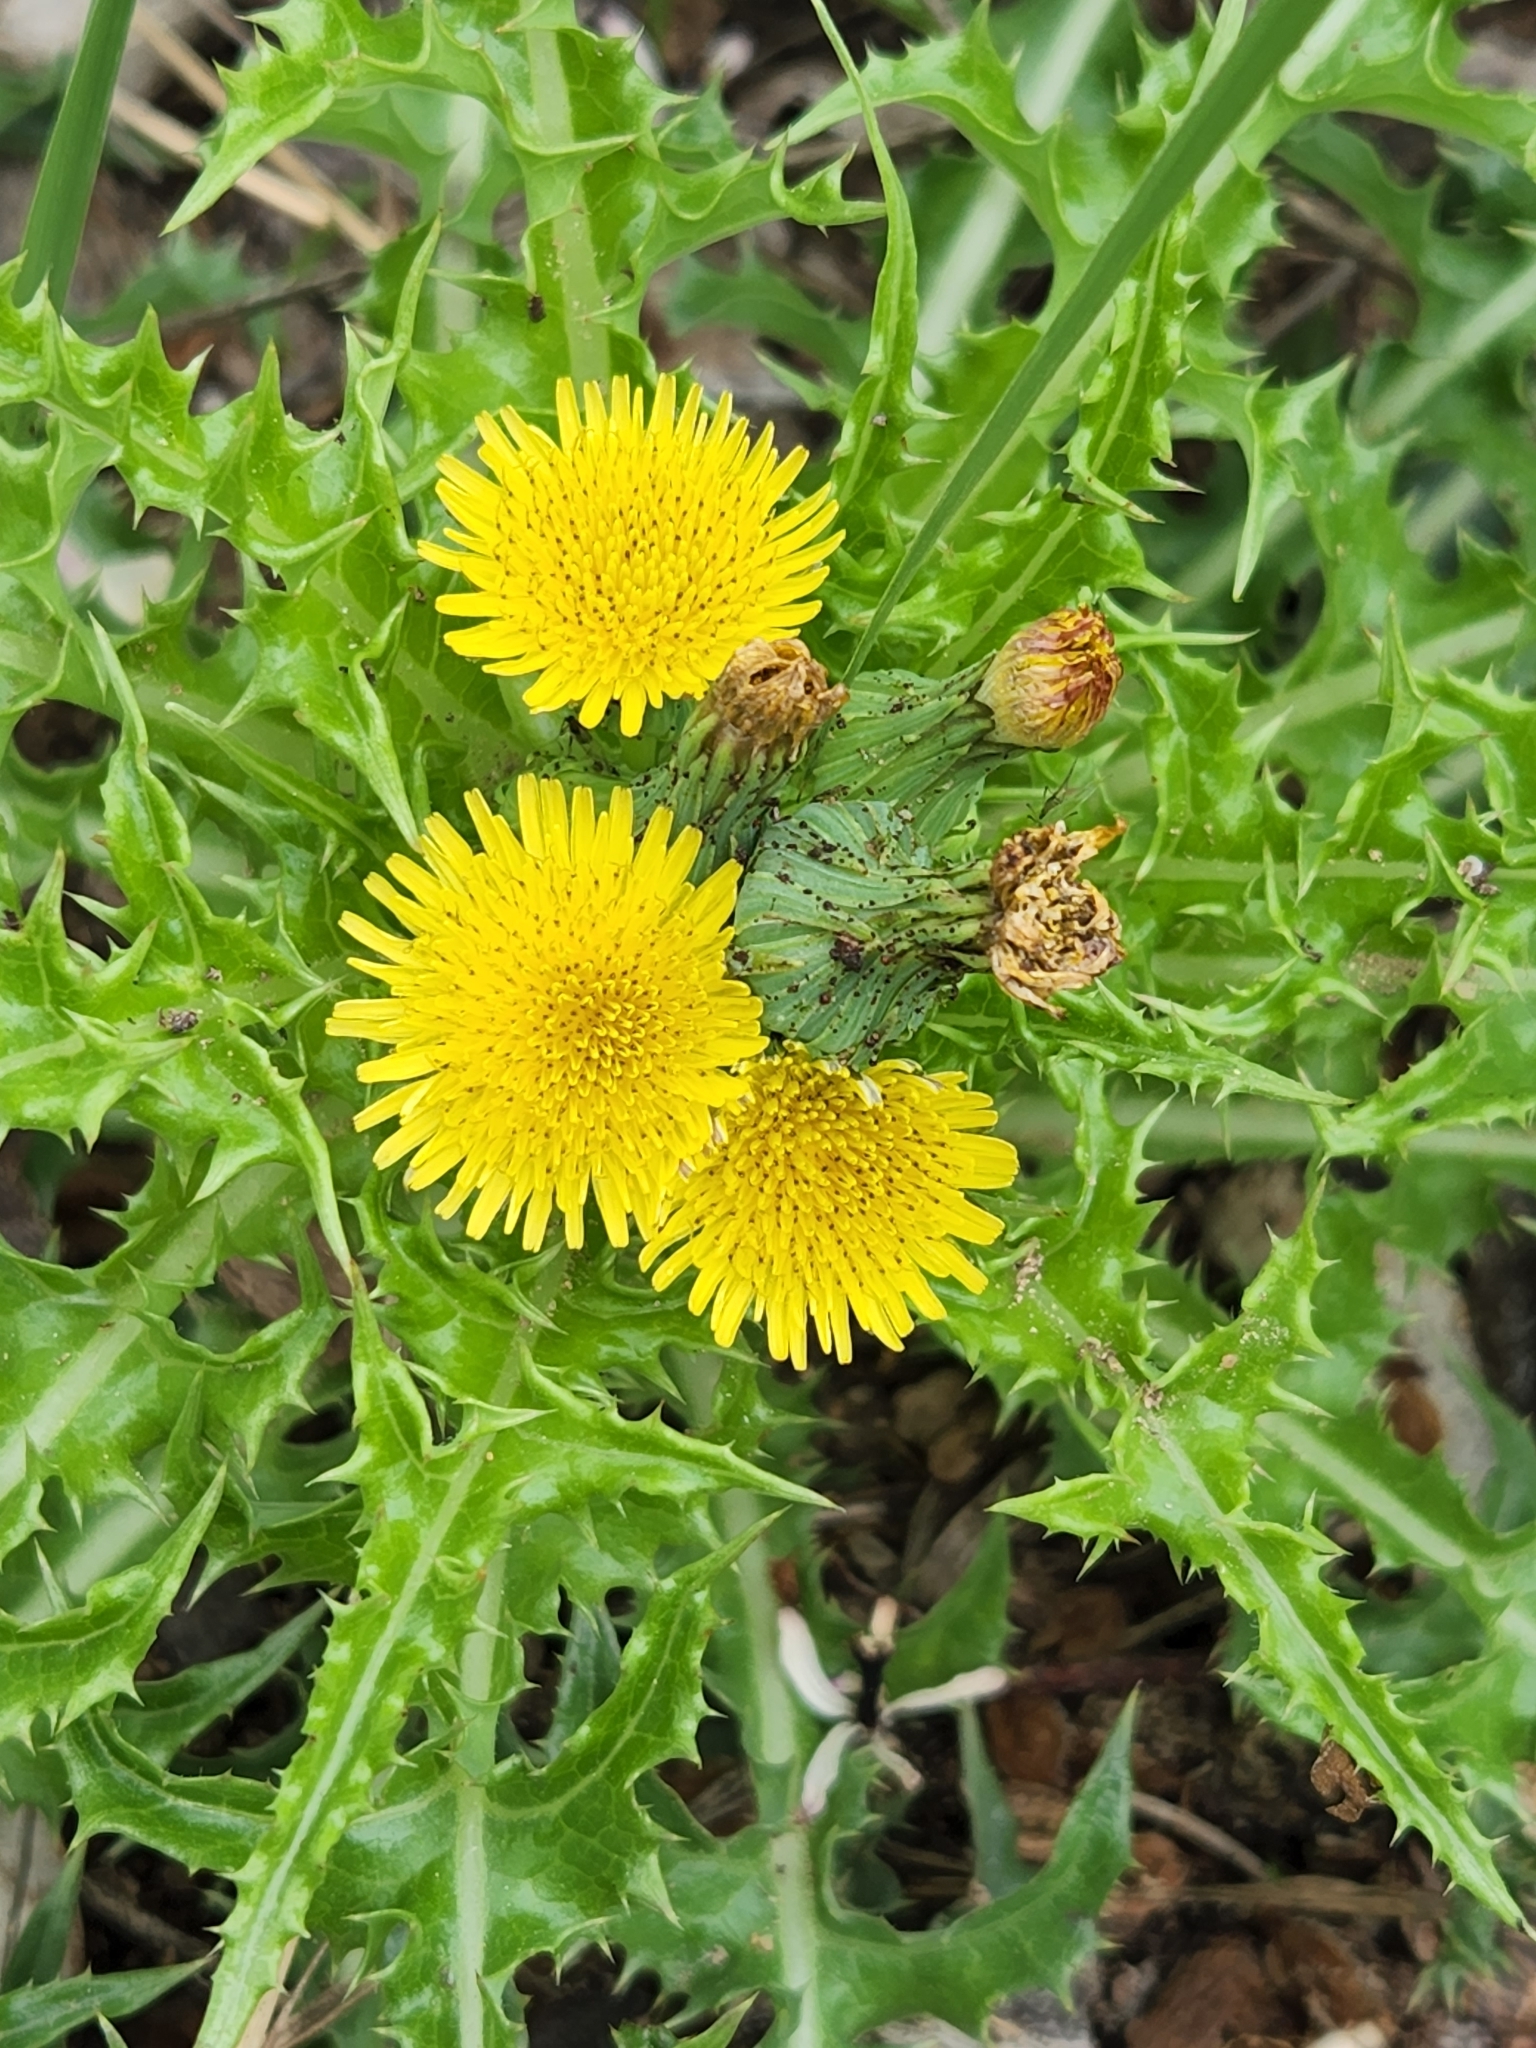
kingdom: Plantae
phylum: Tracheophyta
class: Magnoliopsida
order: Asterales
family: Asteraceae
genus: Sonchus
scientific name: Sonchus asper
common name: Prickly sow-thistle
